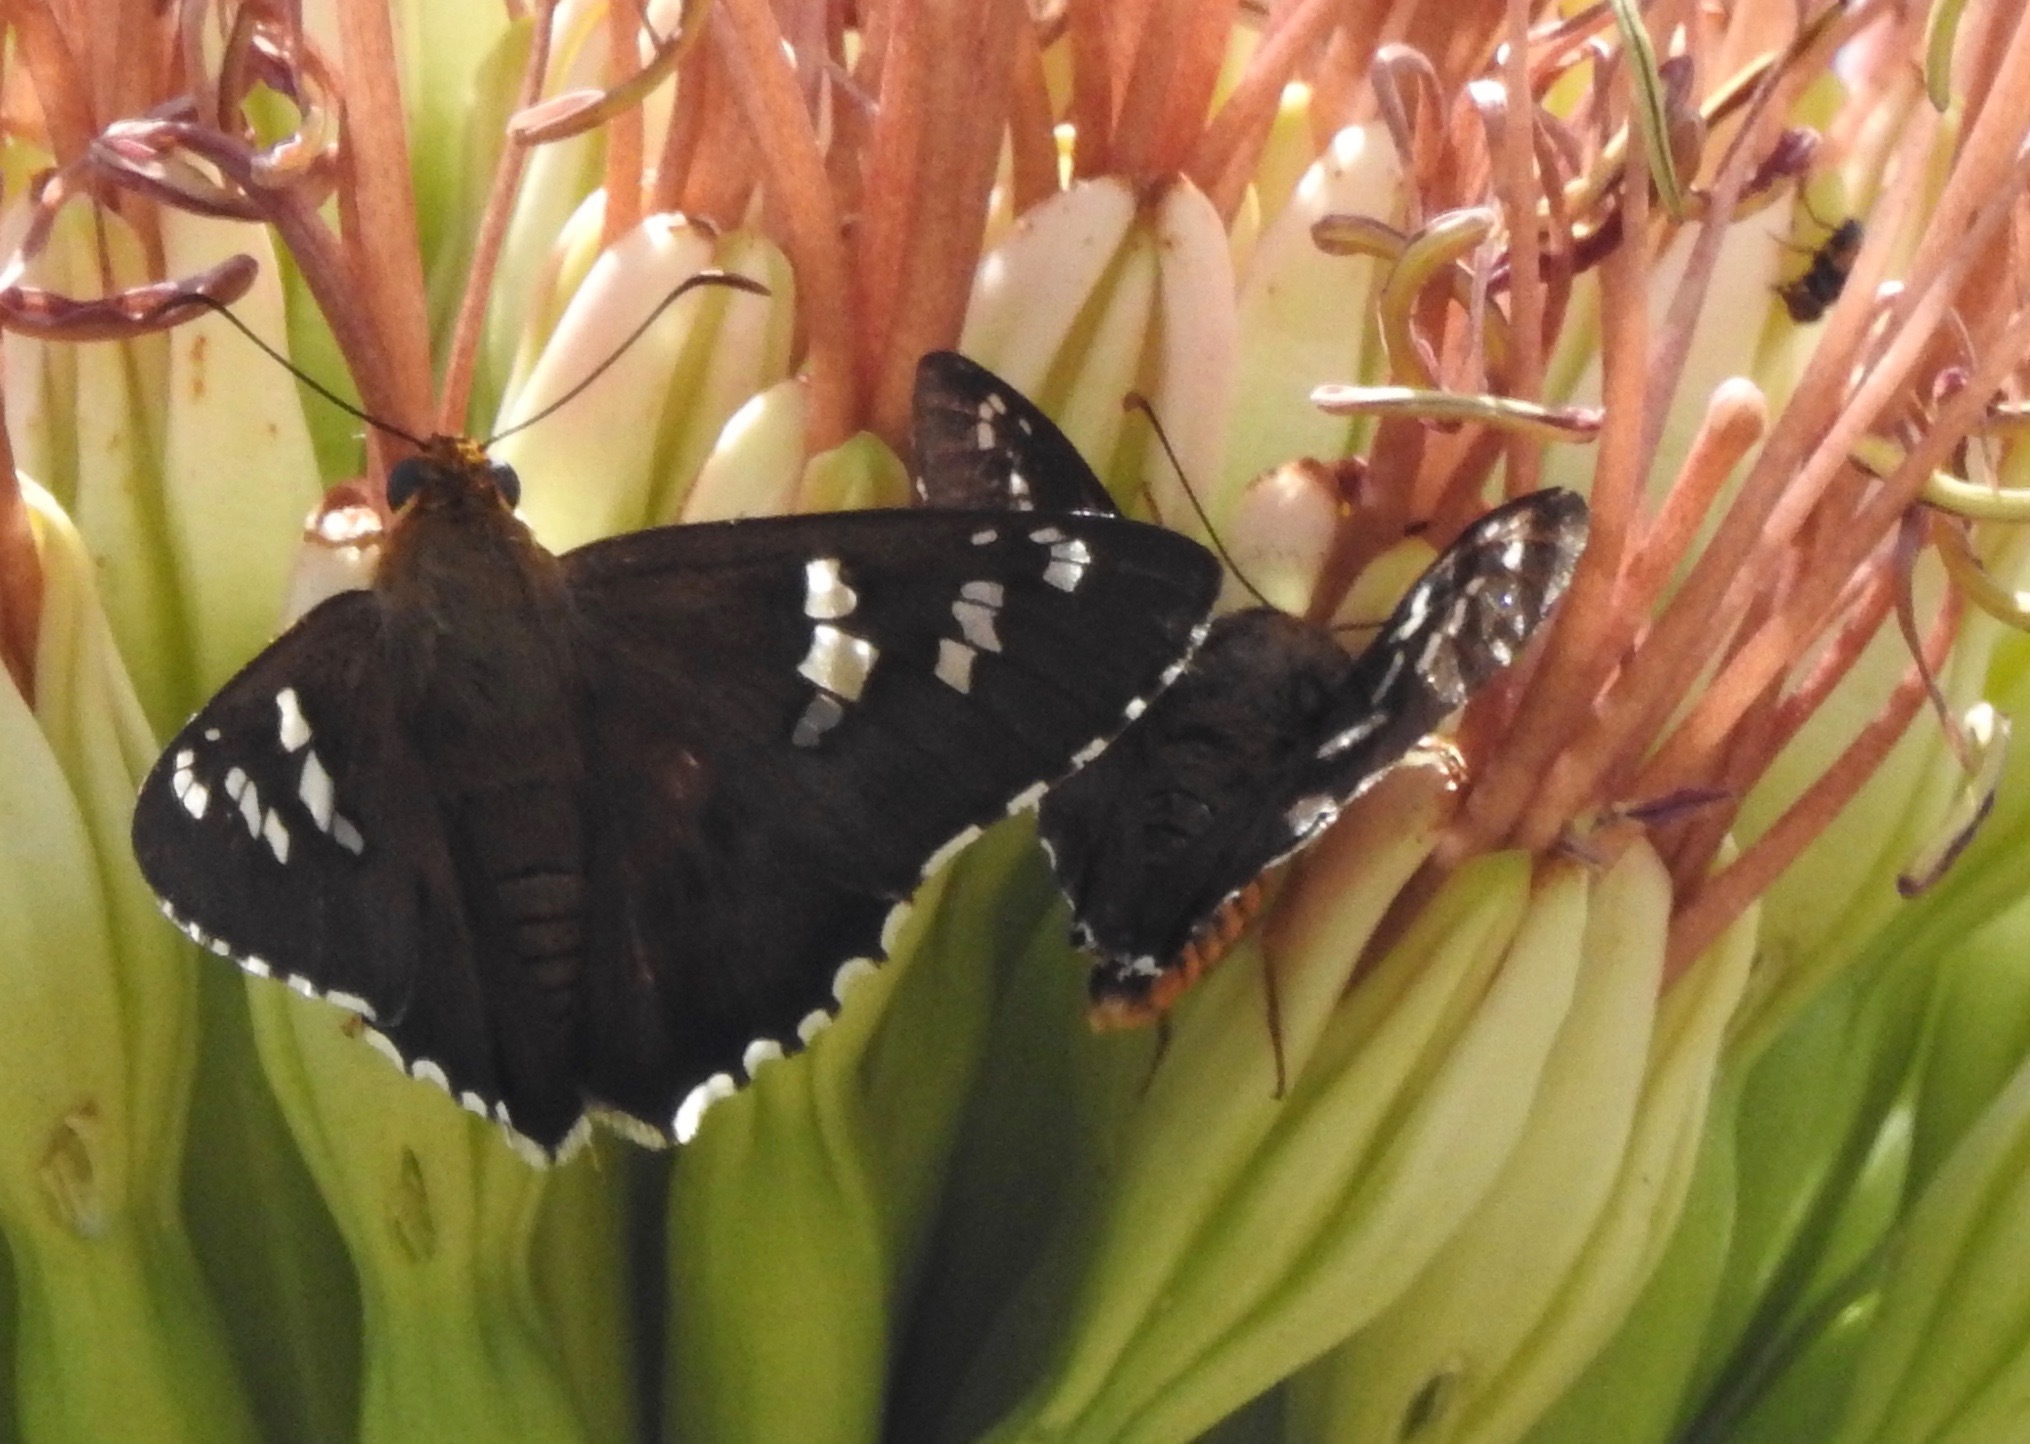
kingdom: Animalia
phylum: Arthropoda
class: Insecta
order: Lepidoptera
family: Hesperiidae
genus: Pyrrhopyge
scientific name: Pyrrhopyge araxes
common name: Dull firetip
